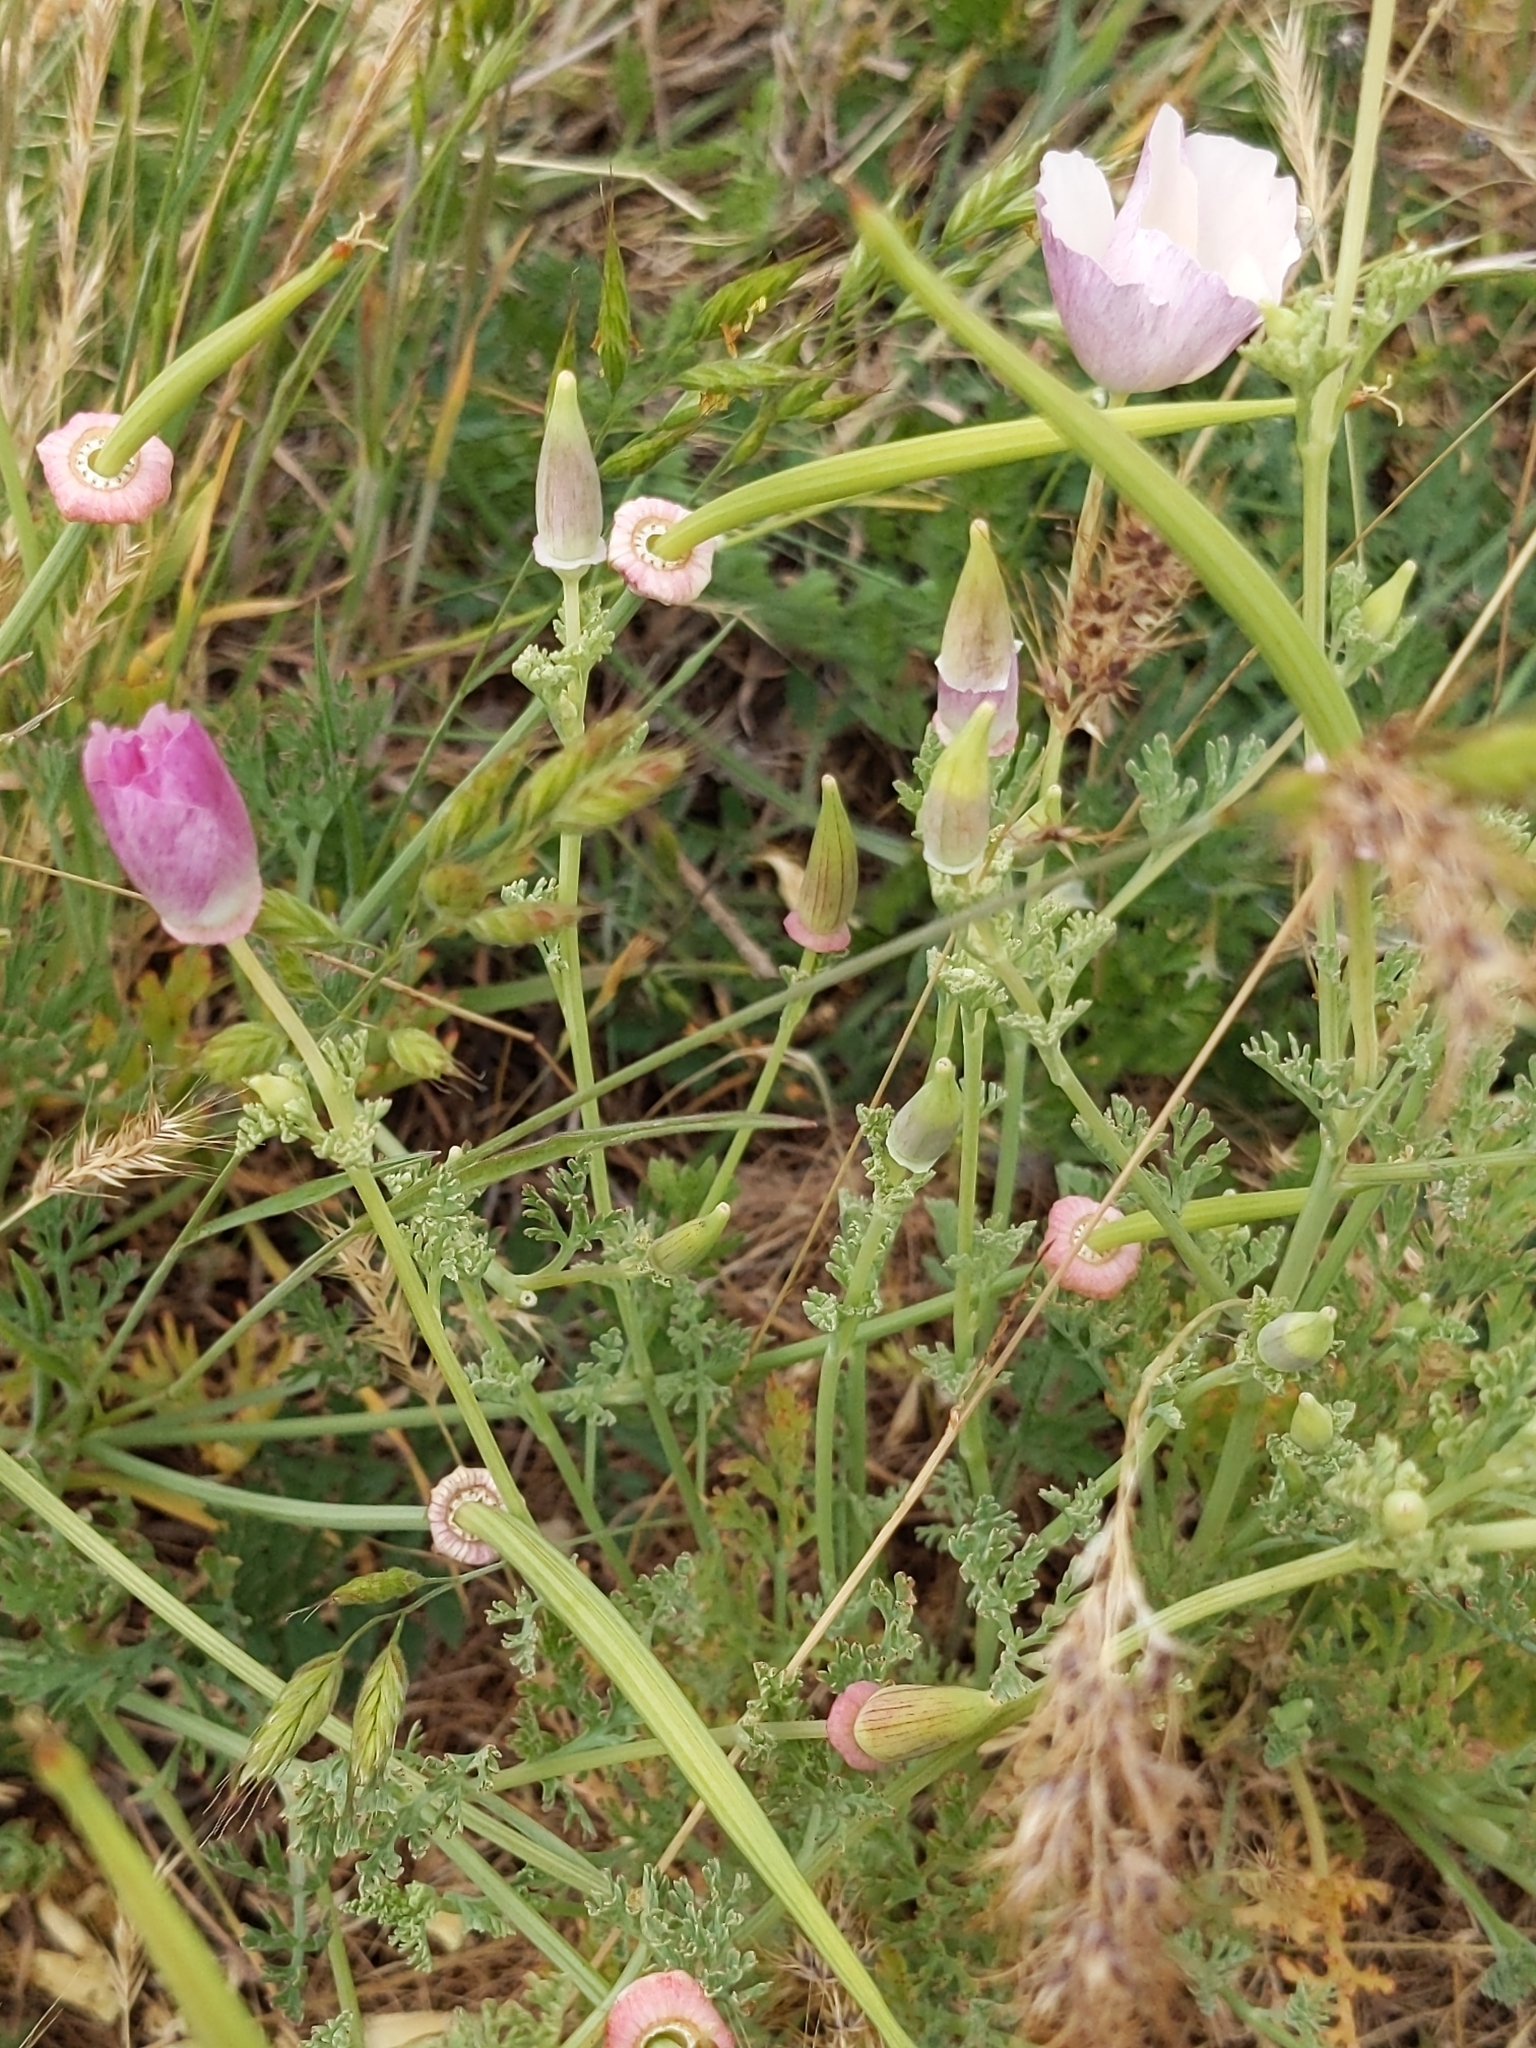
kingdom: Plantae
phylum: Tracheophyta
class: Magnoliopsida
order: Ranunculales
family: Papaveraceae
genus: Eschscholzia
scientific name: Eschscholzia californica
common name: California poppy
